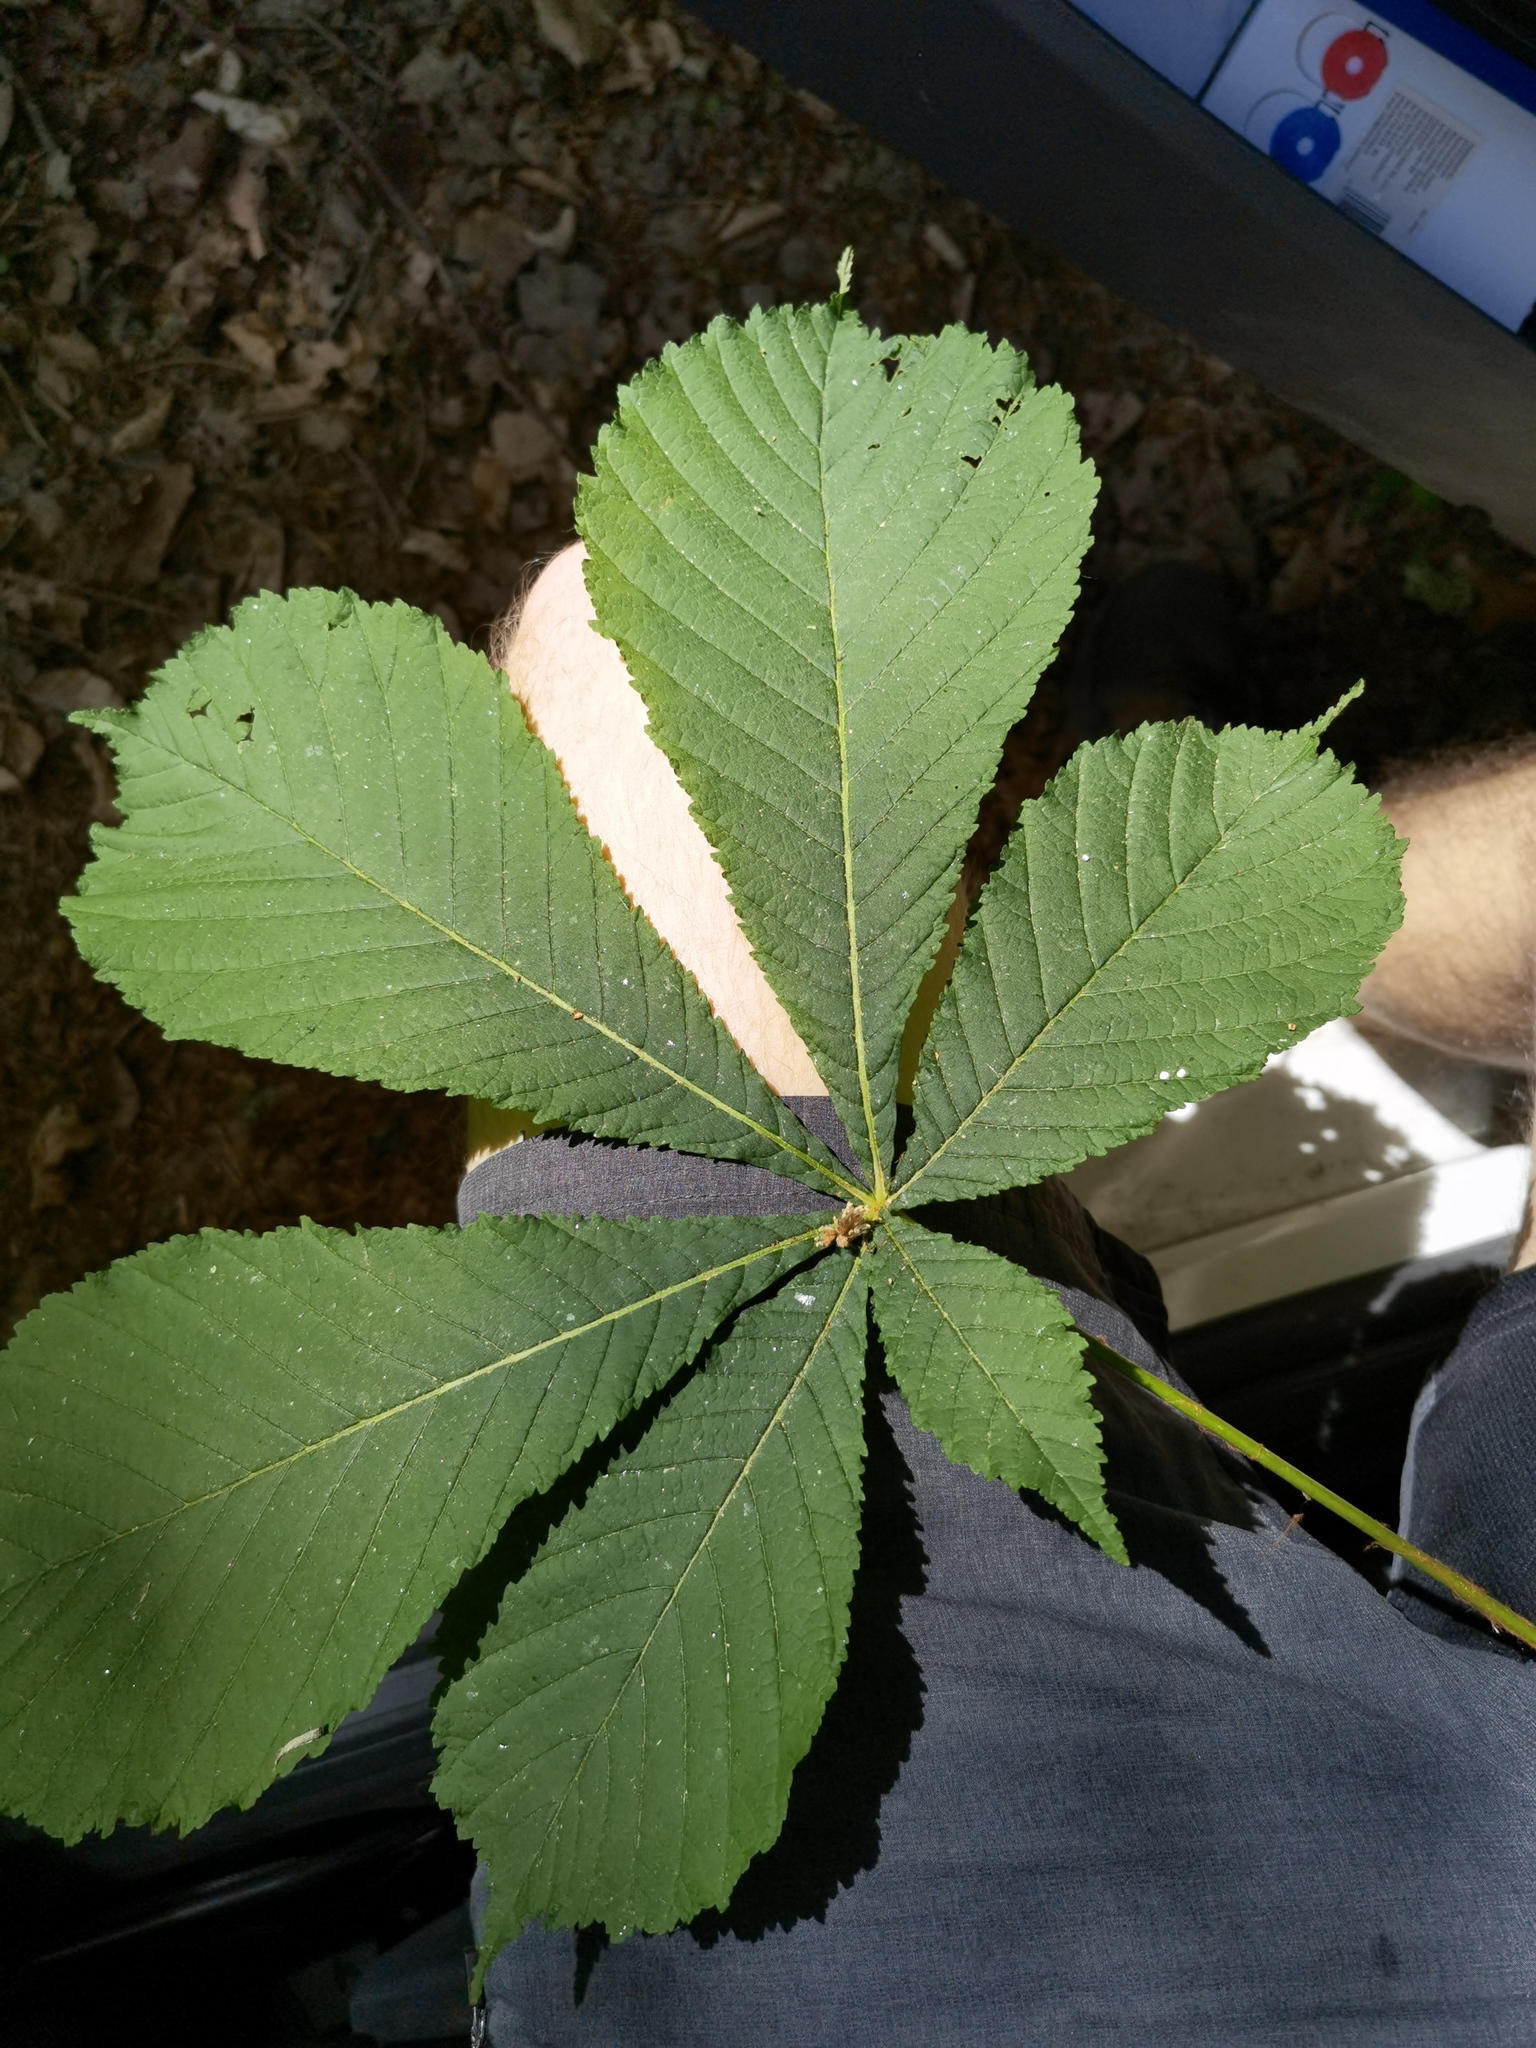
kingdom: Plantae
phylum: Tracheophyta
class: Magnoliopsida
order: Sapindales
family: Sapindaceae
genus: Aesculus
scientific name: Aesculus hippocastanum
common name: Horse-chestnut
